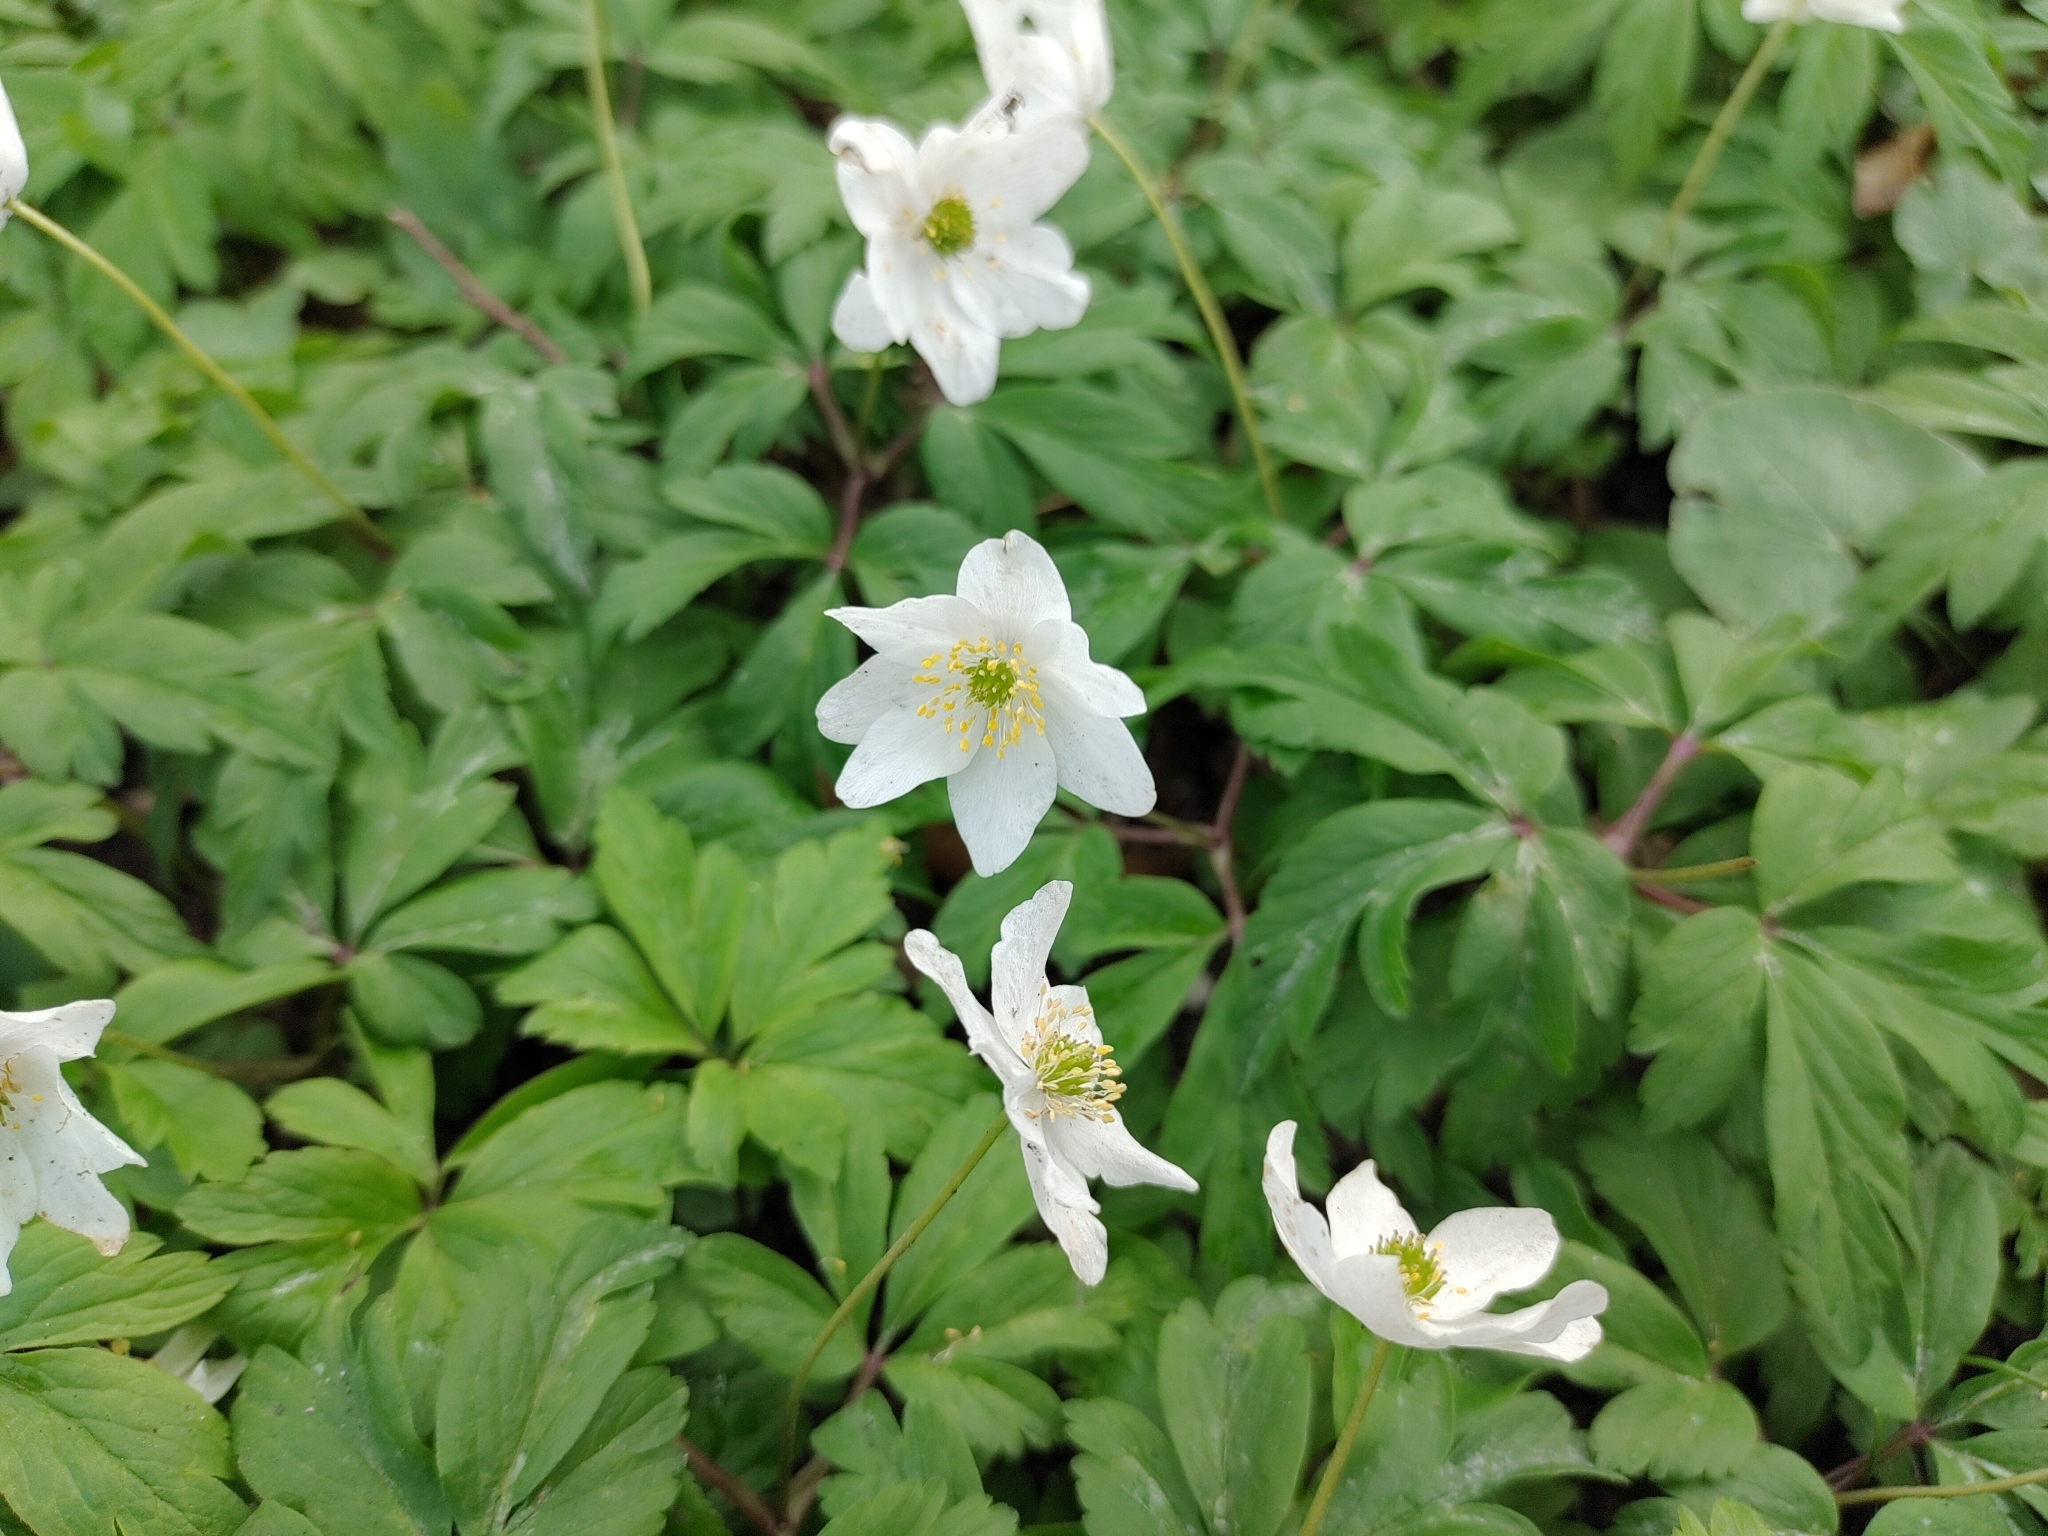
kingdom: Plantae
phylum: Tracheophyta
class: Magnoliopsida
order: Ranunculales
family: Ranunculaceae
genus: Anemone
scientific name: Anemone nemorosa
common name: Wood anemone
